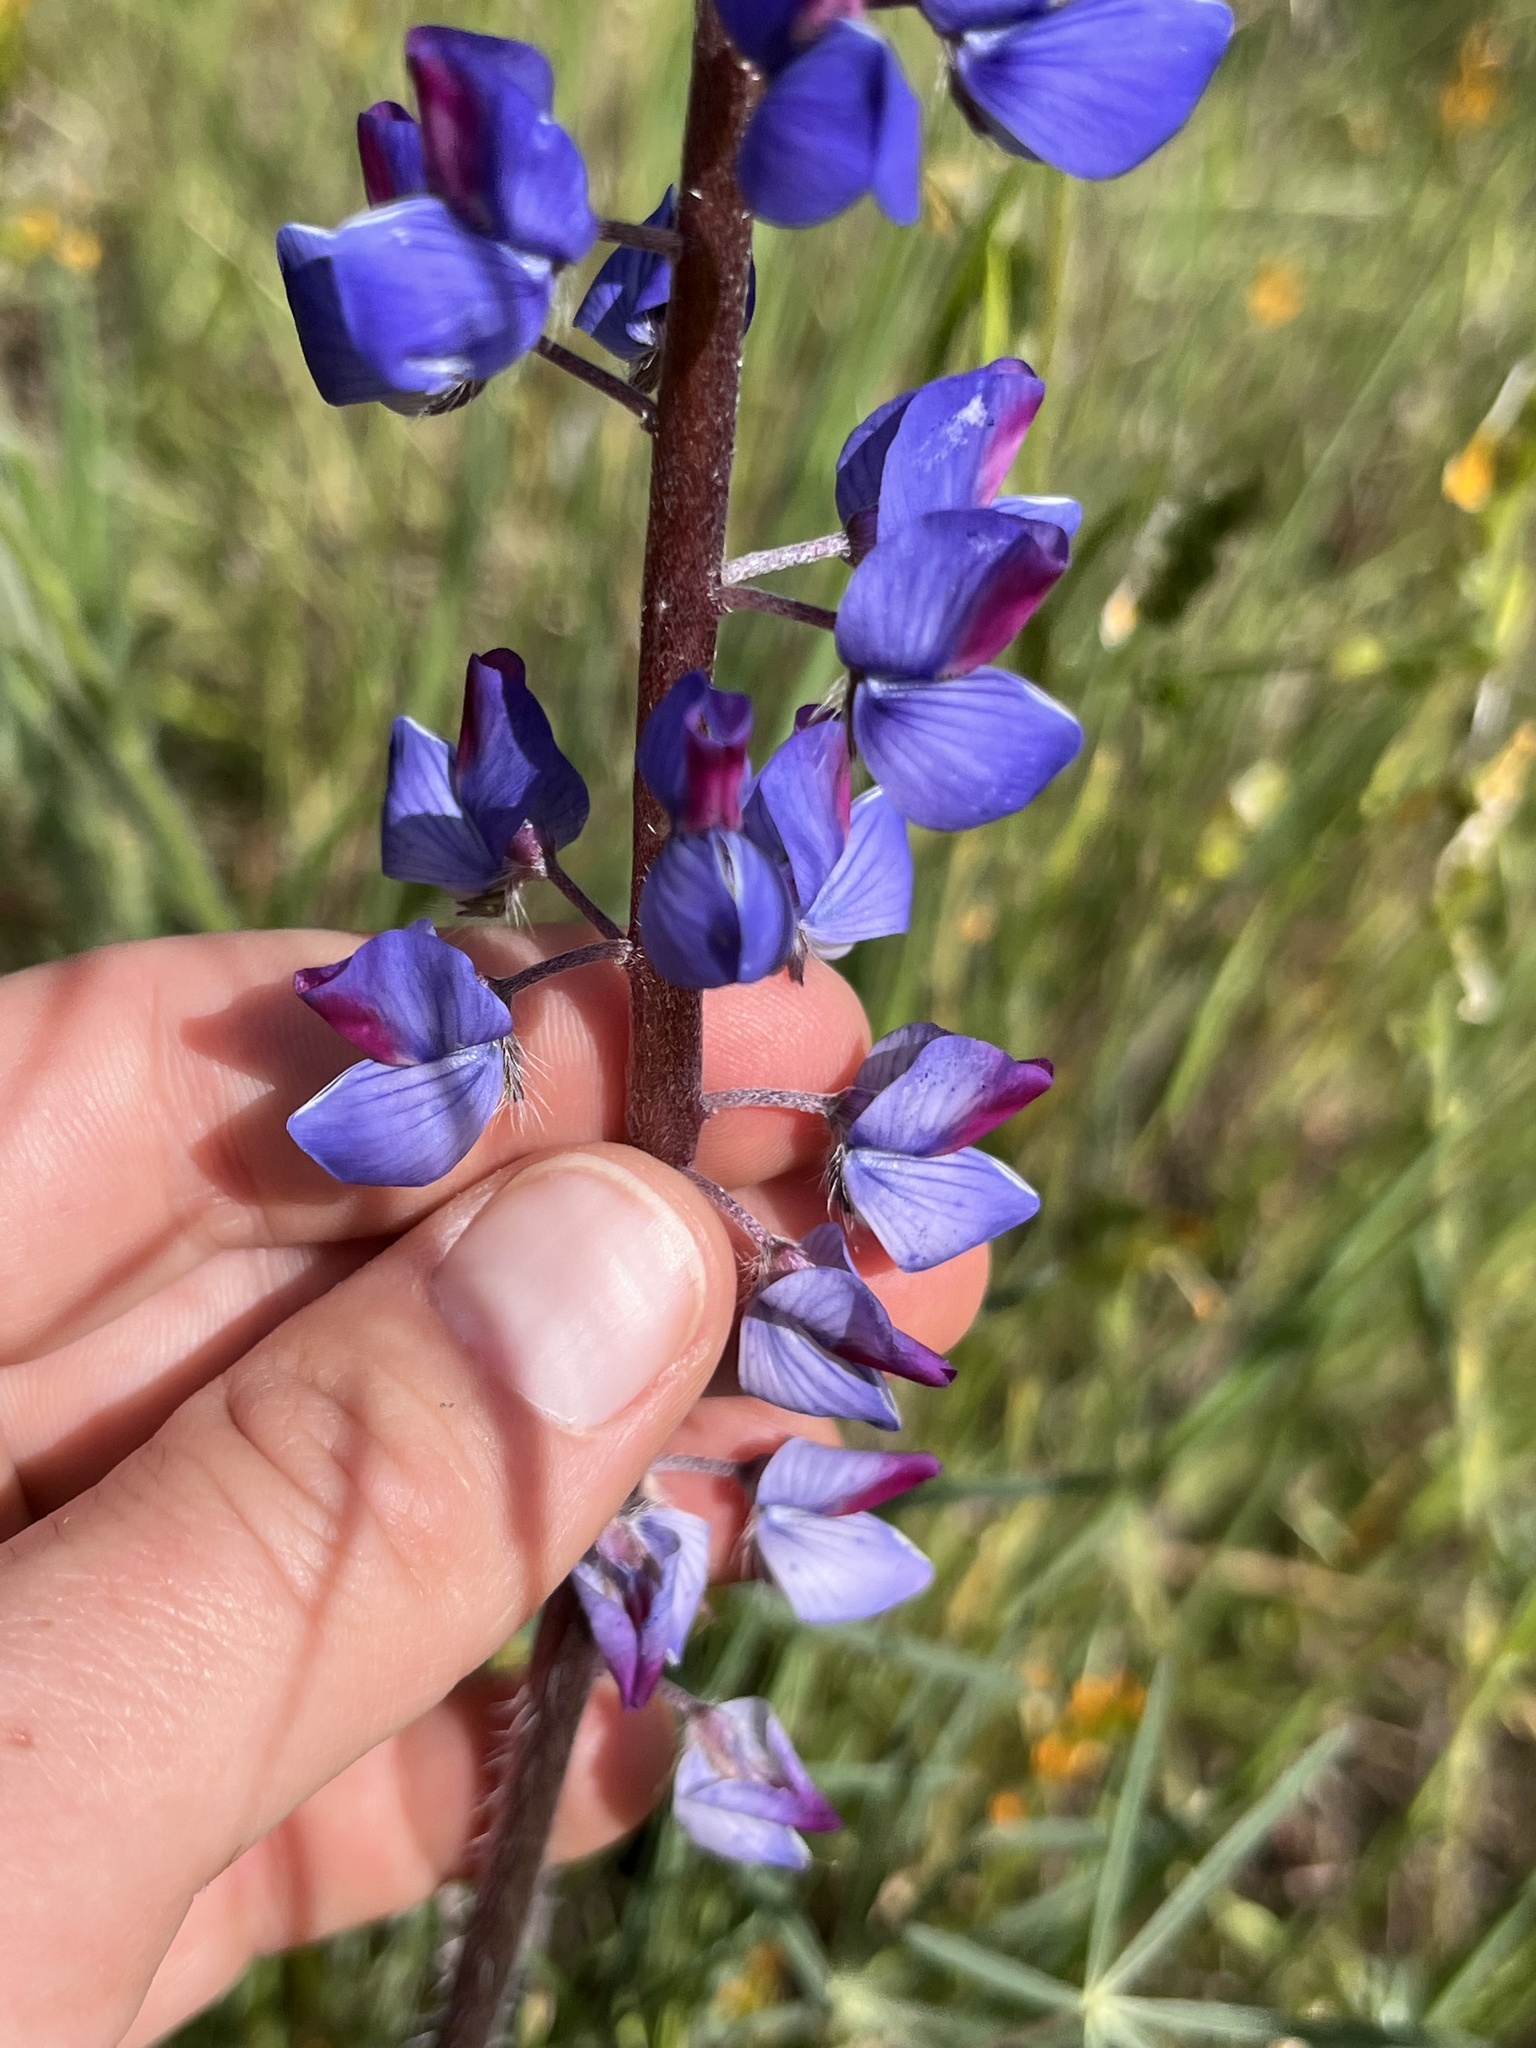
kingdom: Plantae
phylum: Tracheophyta
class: Magnoliopsida
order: Fabales
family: Fabaceae
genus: Lupinus
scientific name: Lupinus benthamii
